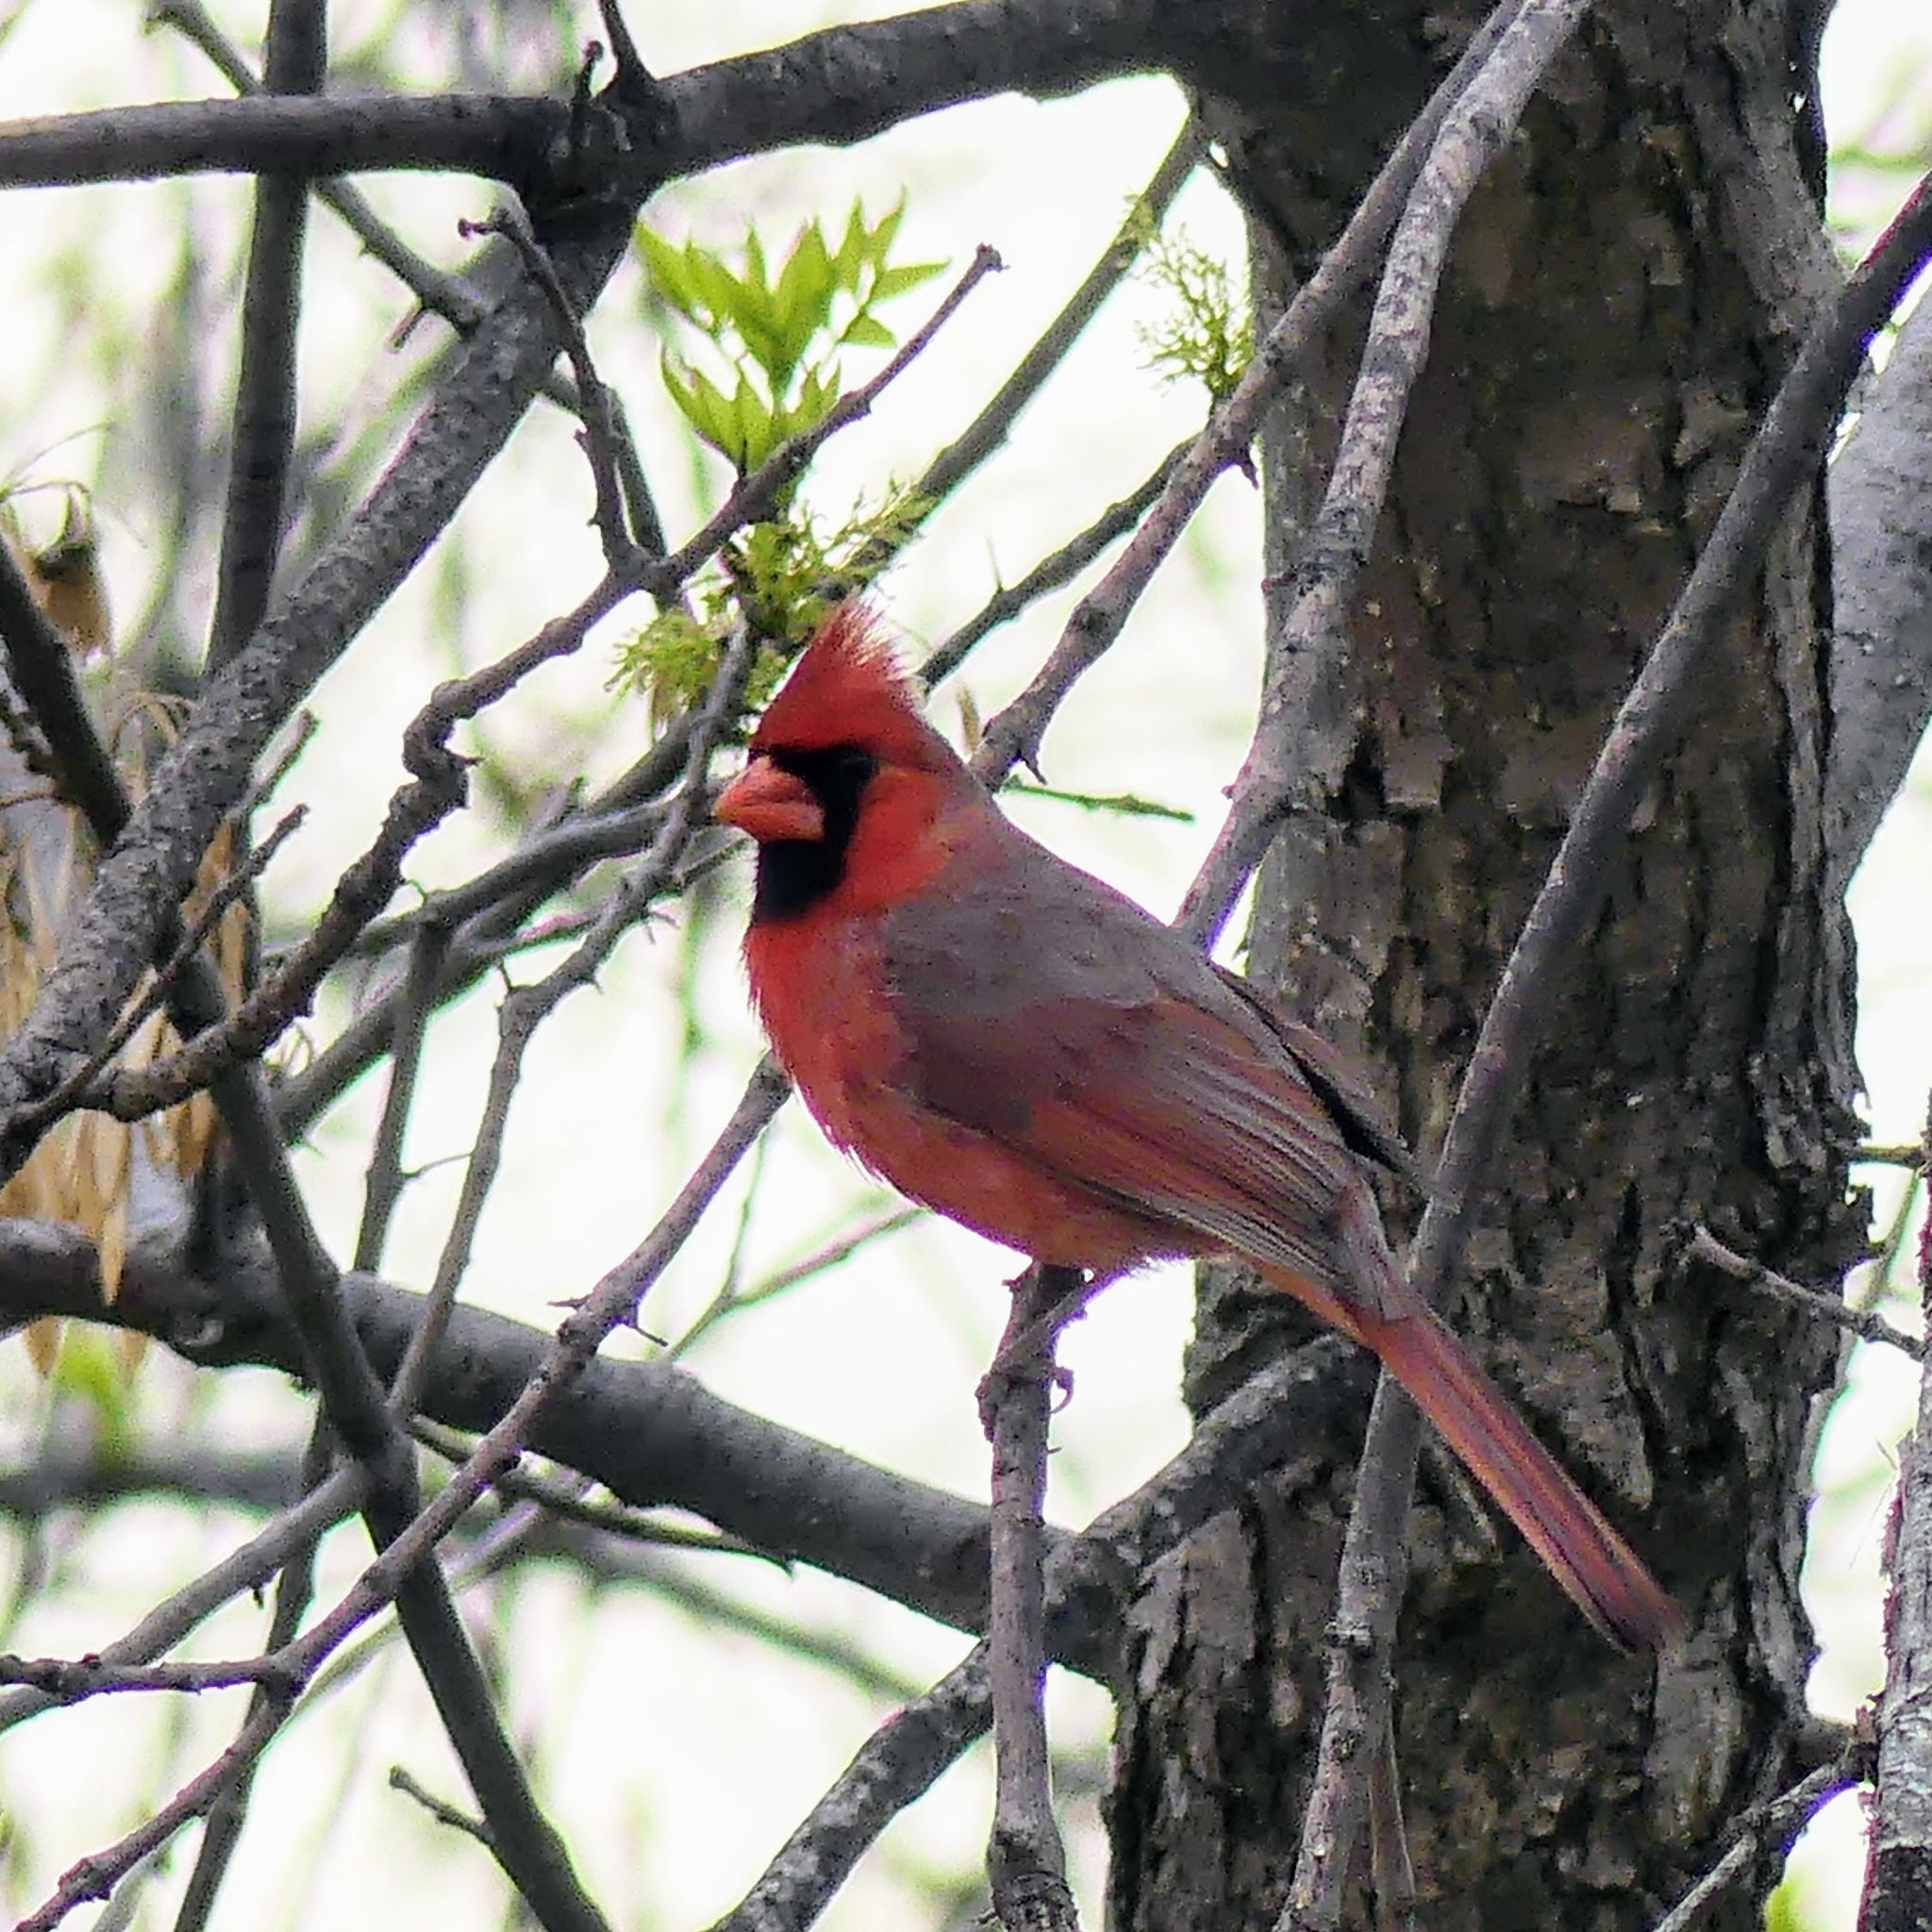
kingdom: Animalia
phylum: Chordata
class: Aves
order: Passeriformes
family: Cardinalidae
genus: Cardinalis
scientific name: Cardinalis cardinalis
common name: Northern cardinal
